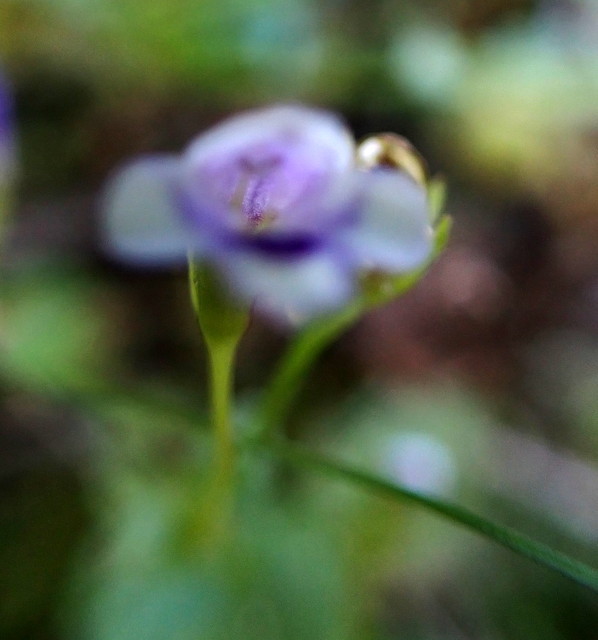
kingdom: Plantae
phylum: Tracheophyta
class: Magnoliopsida
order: Lamiales
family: Linderniaceae
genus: Torenia
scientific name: Torenia crustacea
